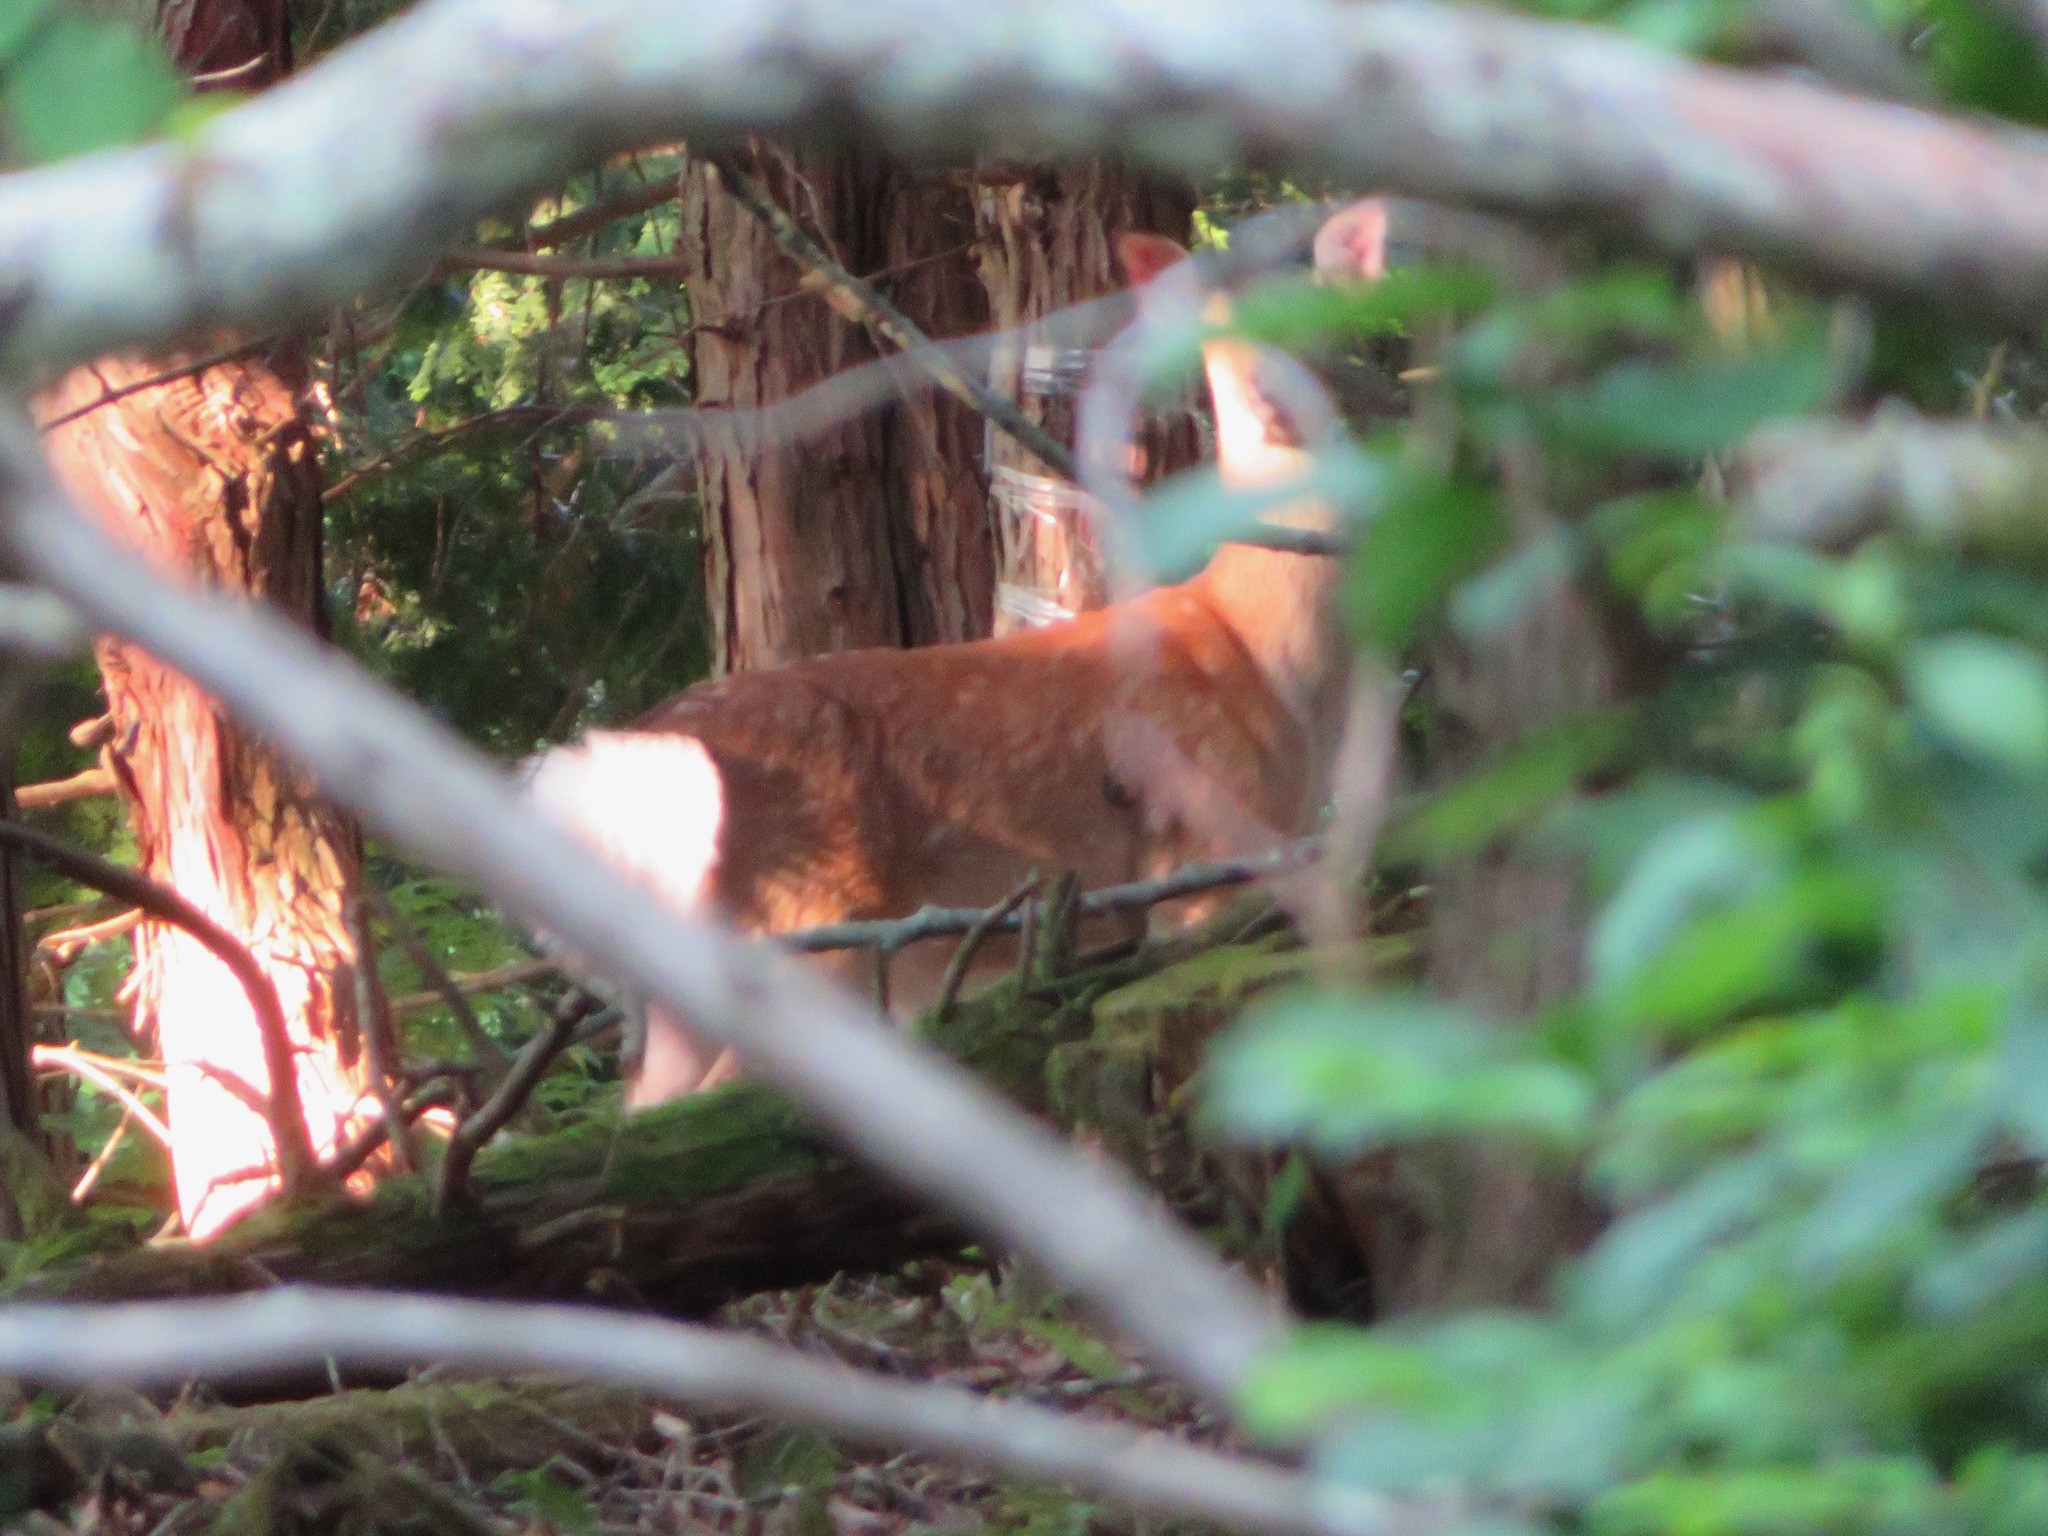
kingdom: Animalia
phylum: Chordata
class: Mammalia
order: Artiodactyla
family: Cervidae
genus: Cervus
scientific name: Cervus nippon
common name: Sika deer
